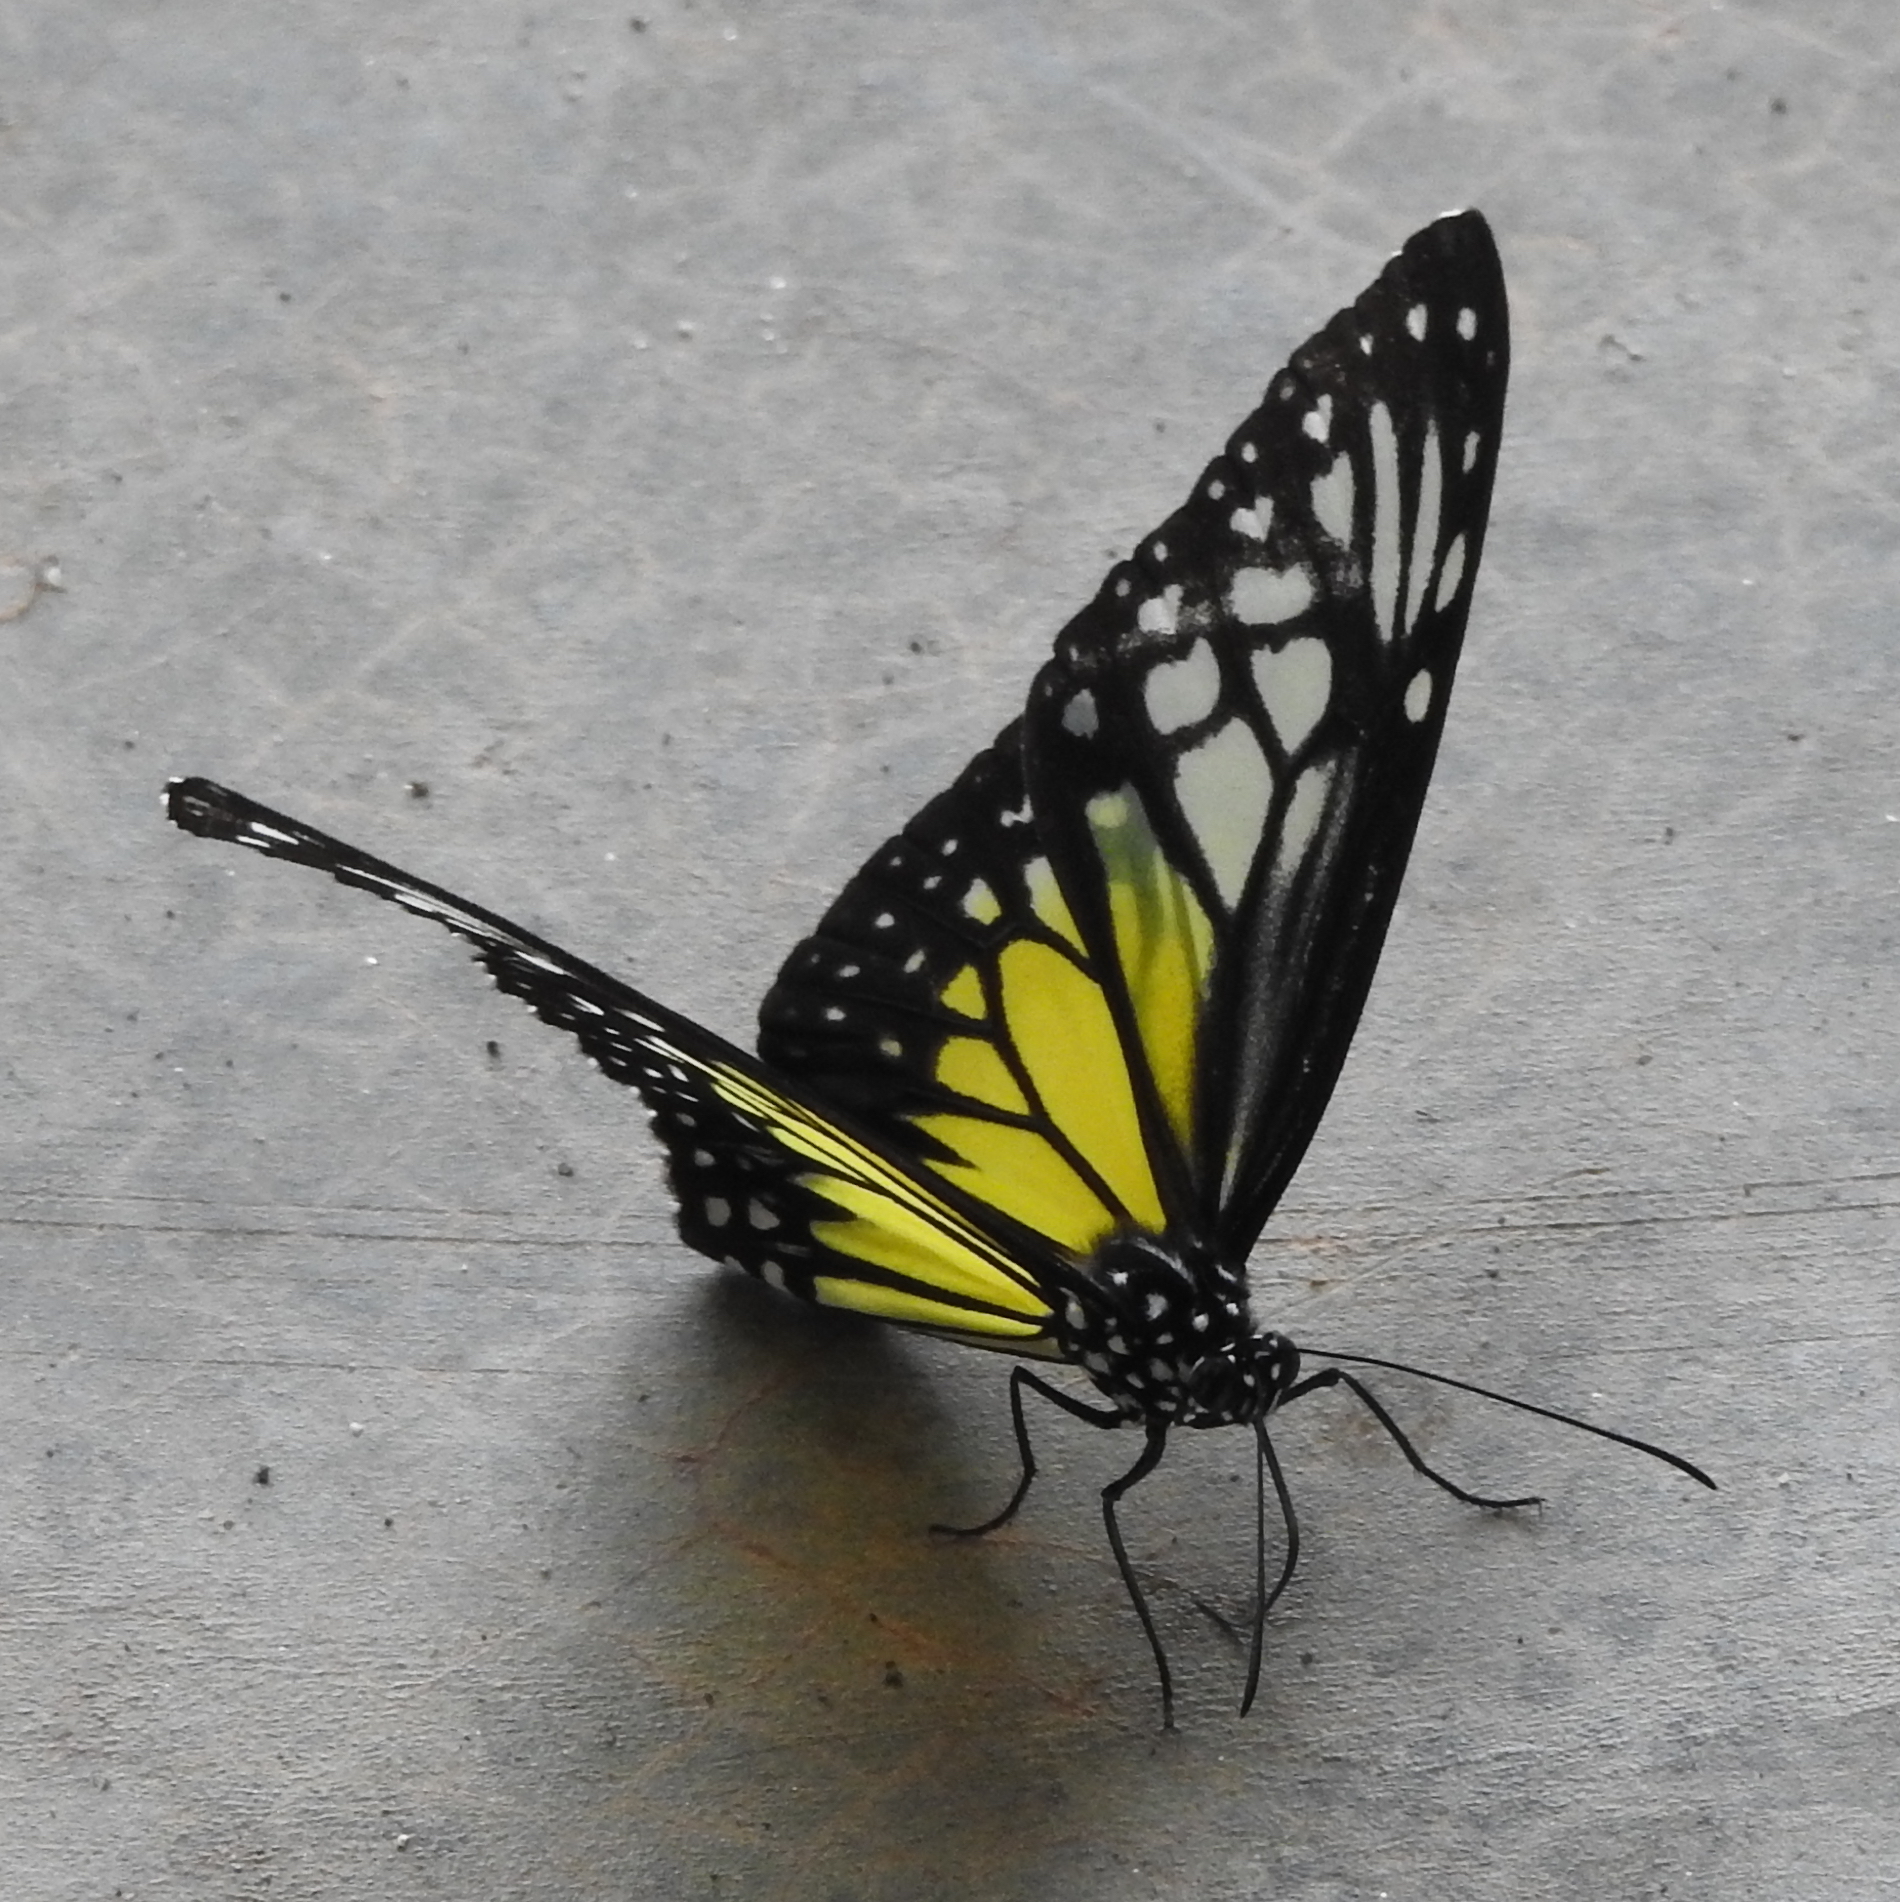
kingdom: Animalia
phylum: Arthropoda
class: Insecta
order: Lepidoptera
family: Nymphalidae
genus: Parantica
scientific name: Parantica aspasia
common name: Yellow glassy tiger
